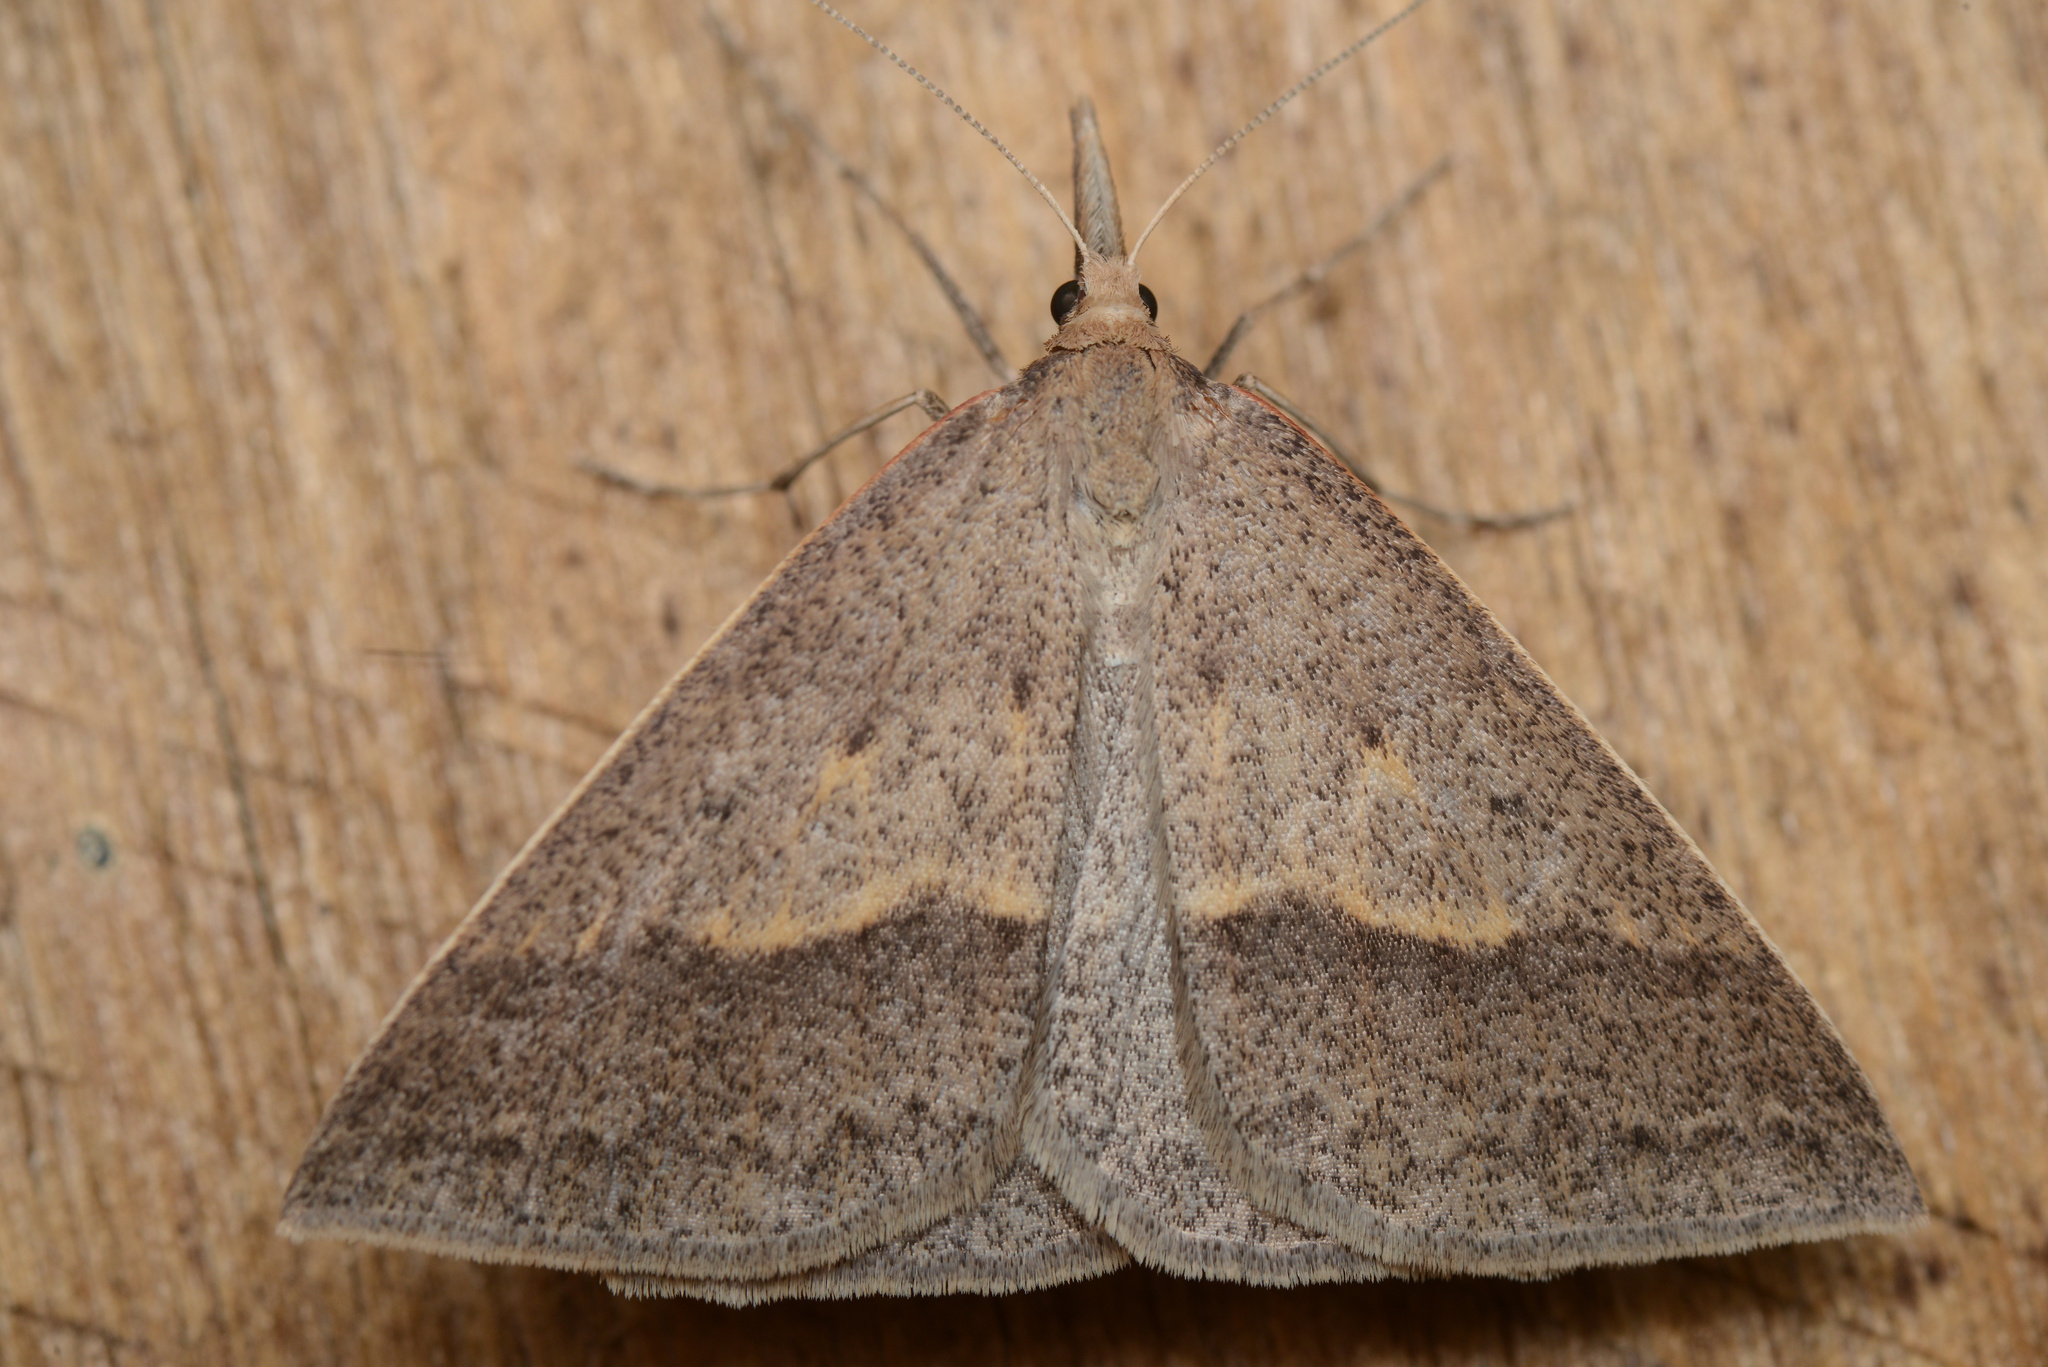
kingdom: Animalia
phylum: Arthropoda
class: Insecta
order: Lepidoptera
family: Geometridae
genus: Epidesmia
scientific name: Epidesmia hypenaria
